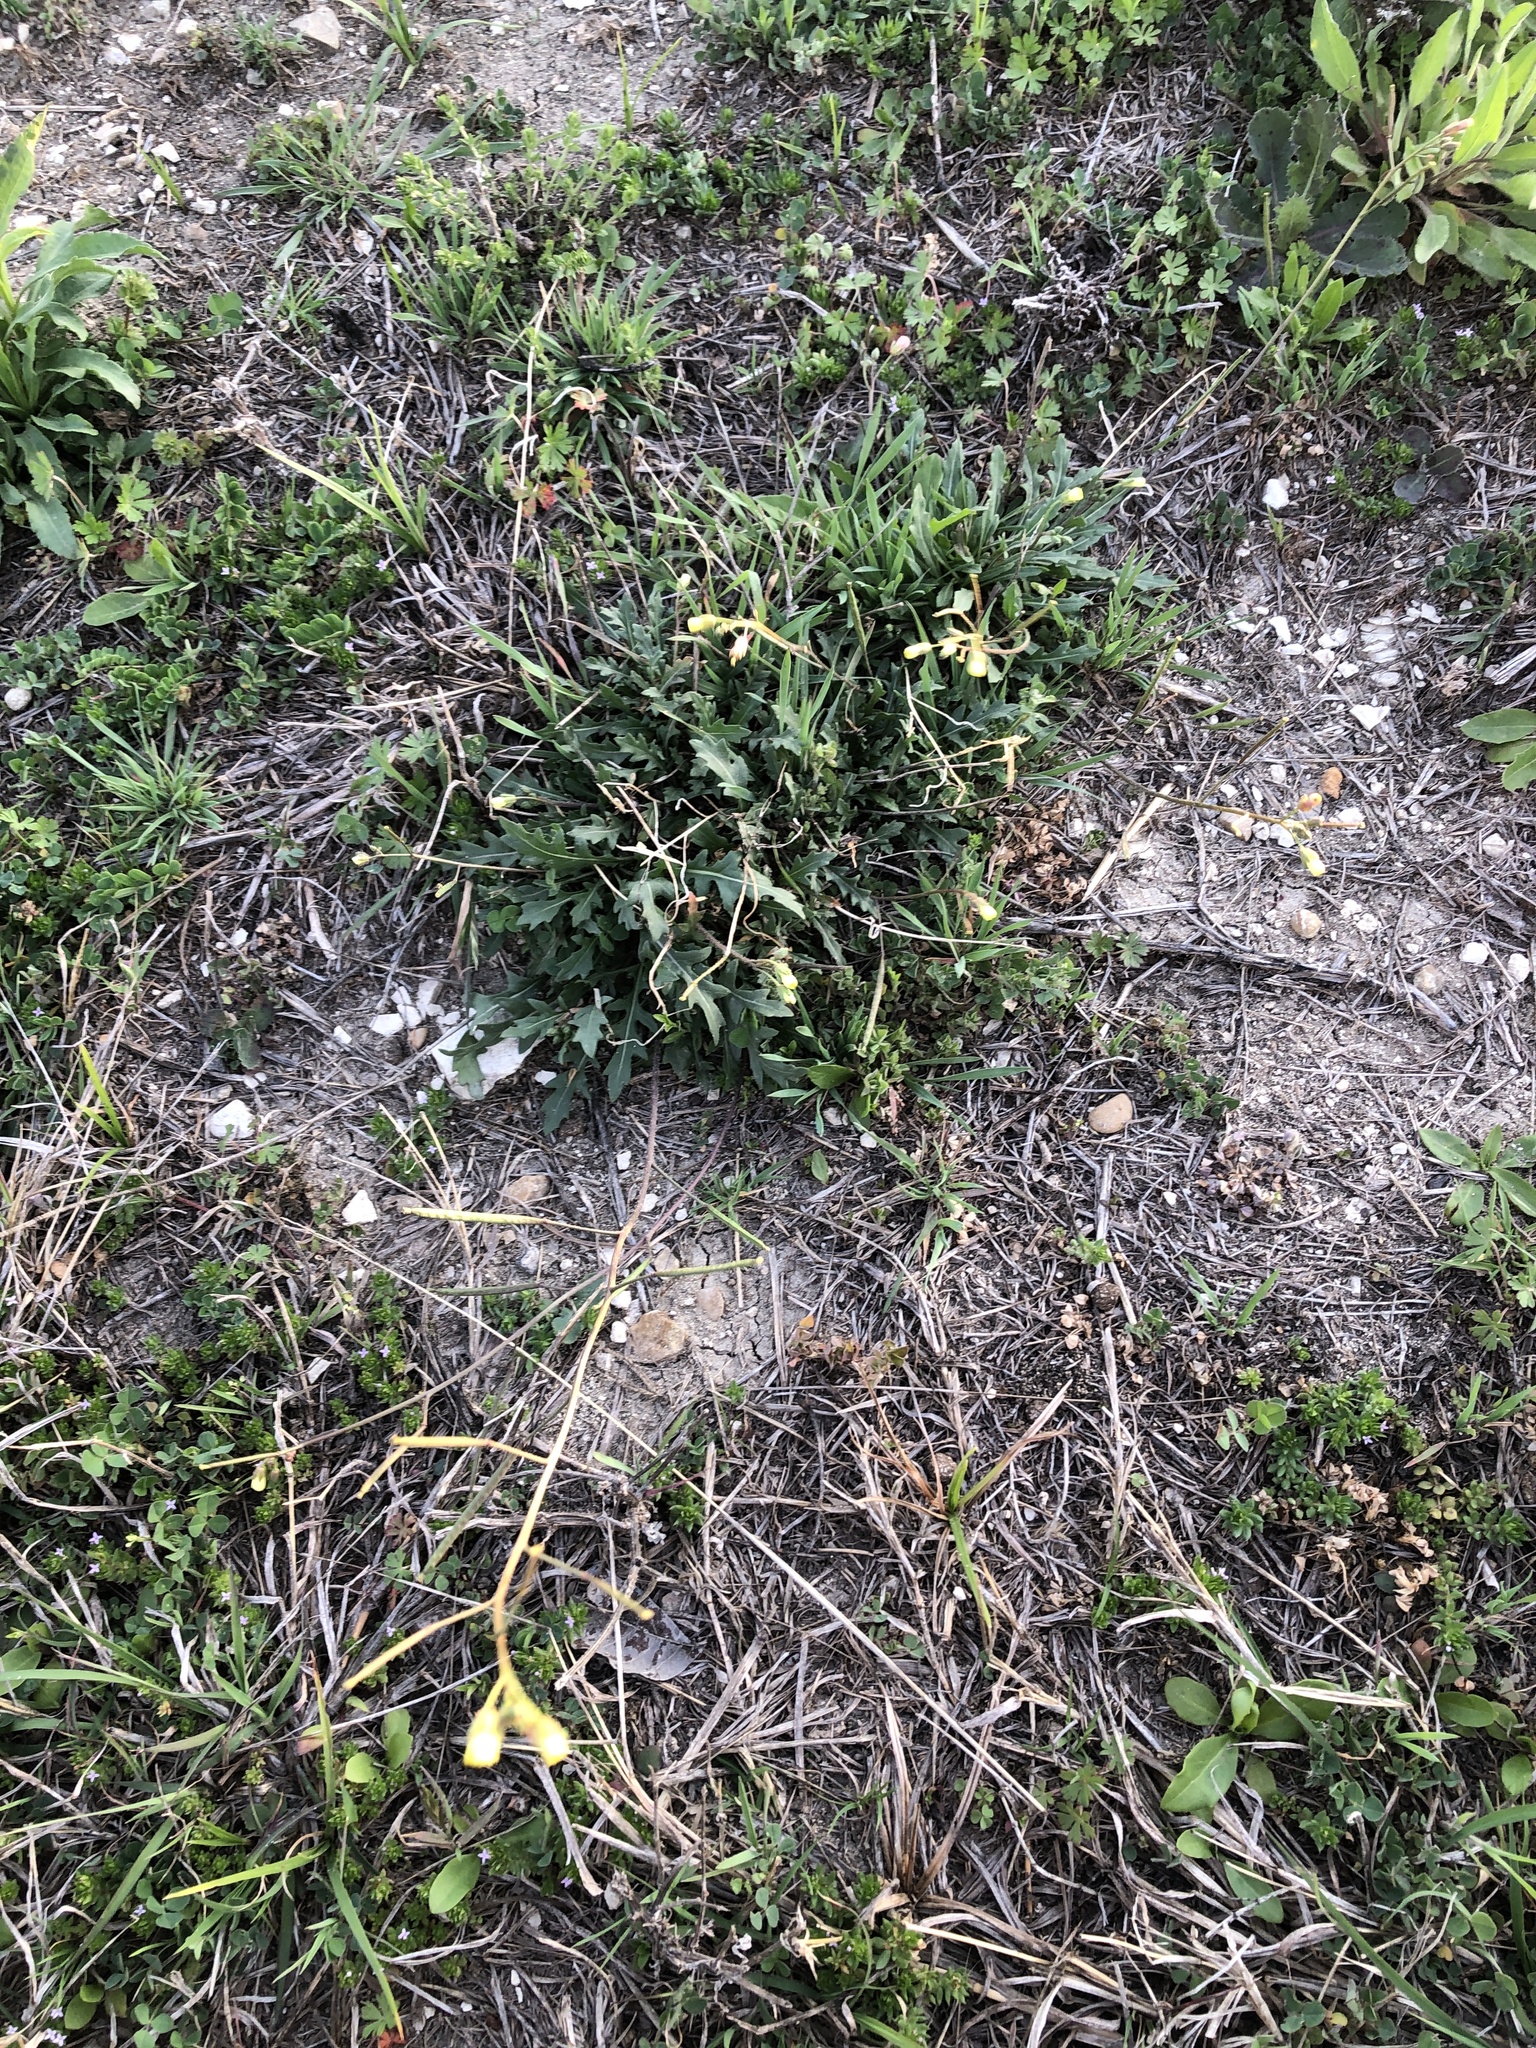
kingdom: Plantae
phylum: Tracheophyta
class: Magnoliopsida
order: Brassicales
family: Brassicaceae
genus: Diplotaxis
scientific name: Diplotaxis muralis
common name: Annual wall-rocket
